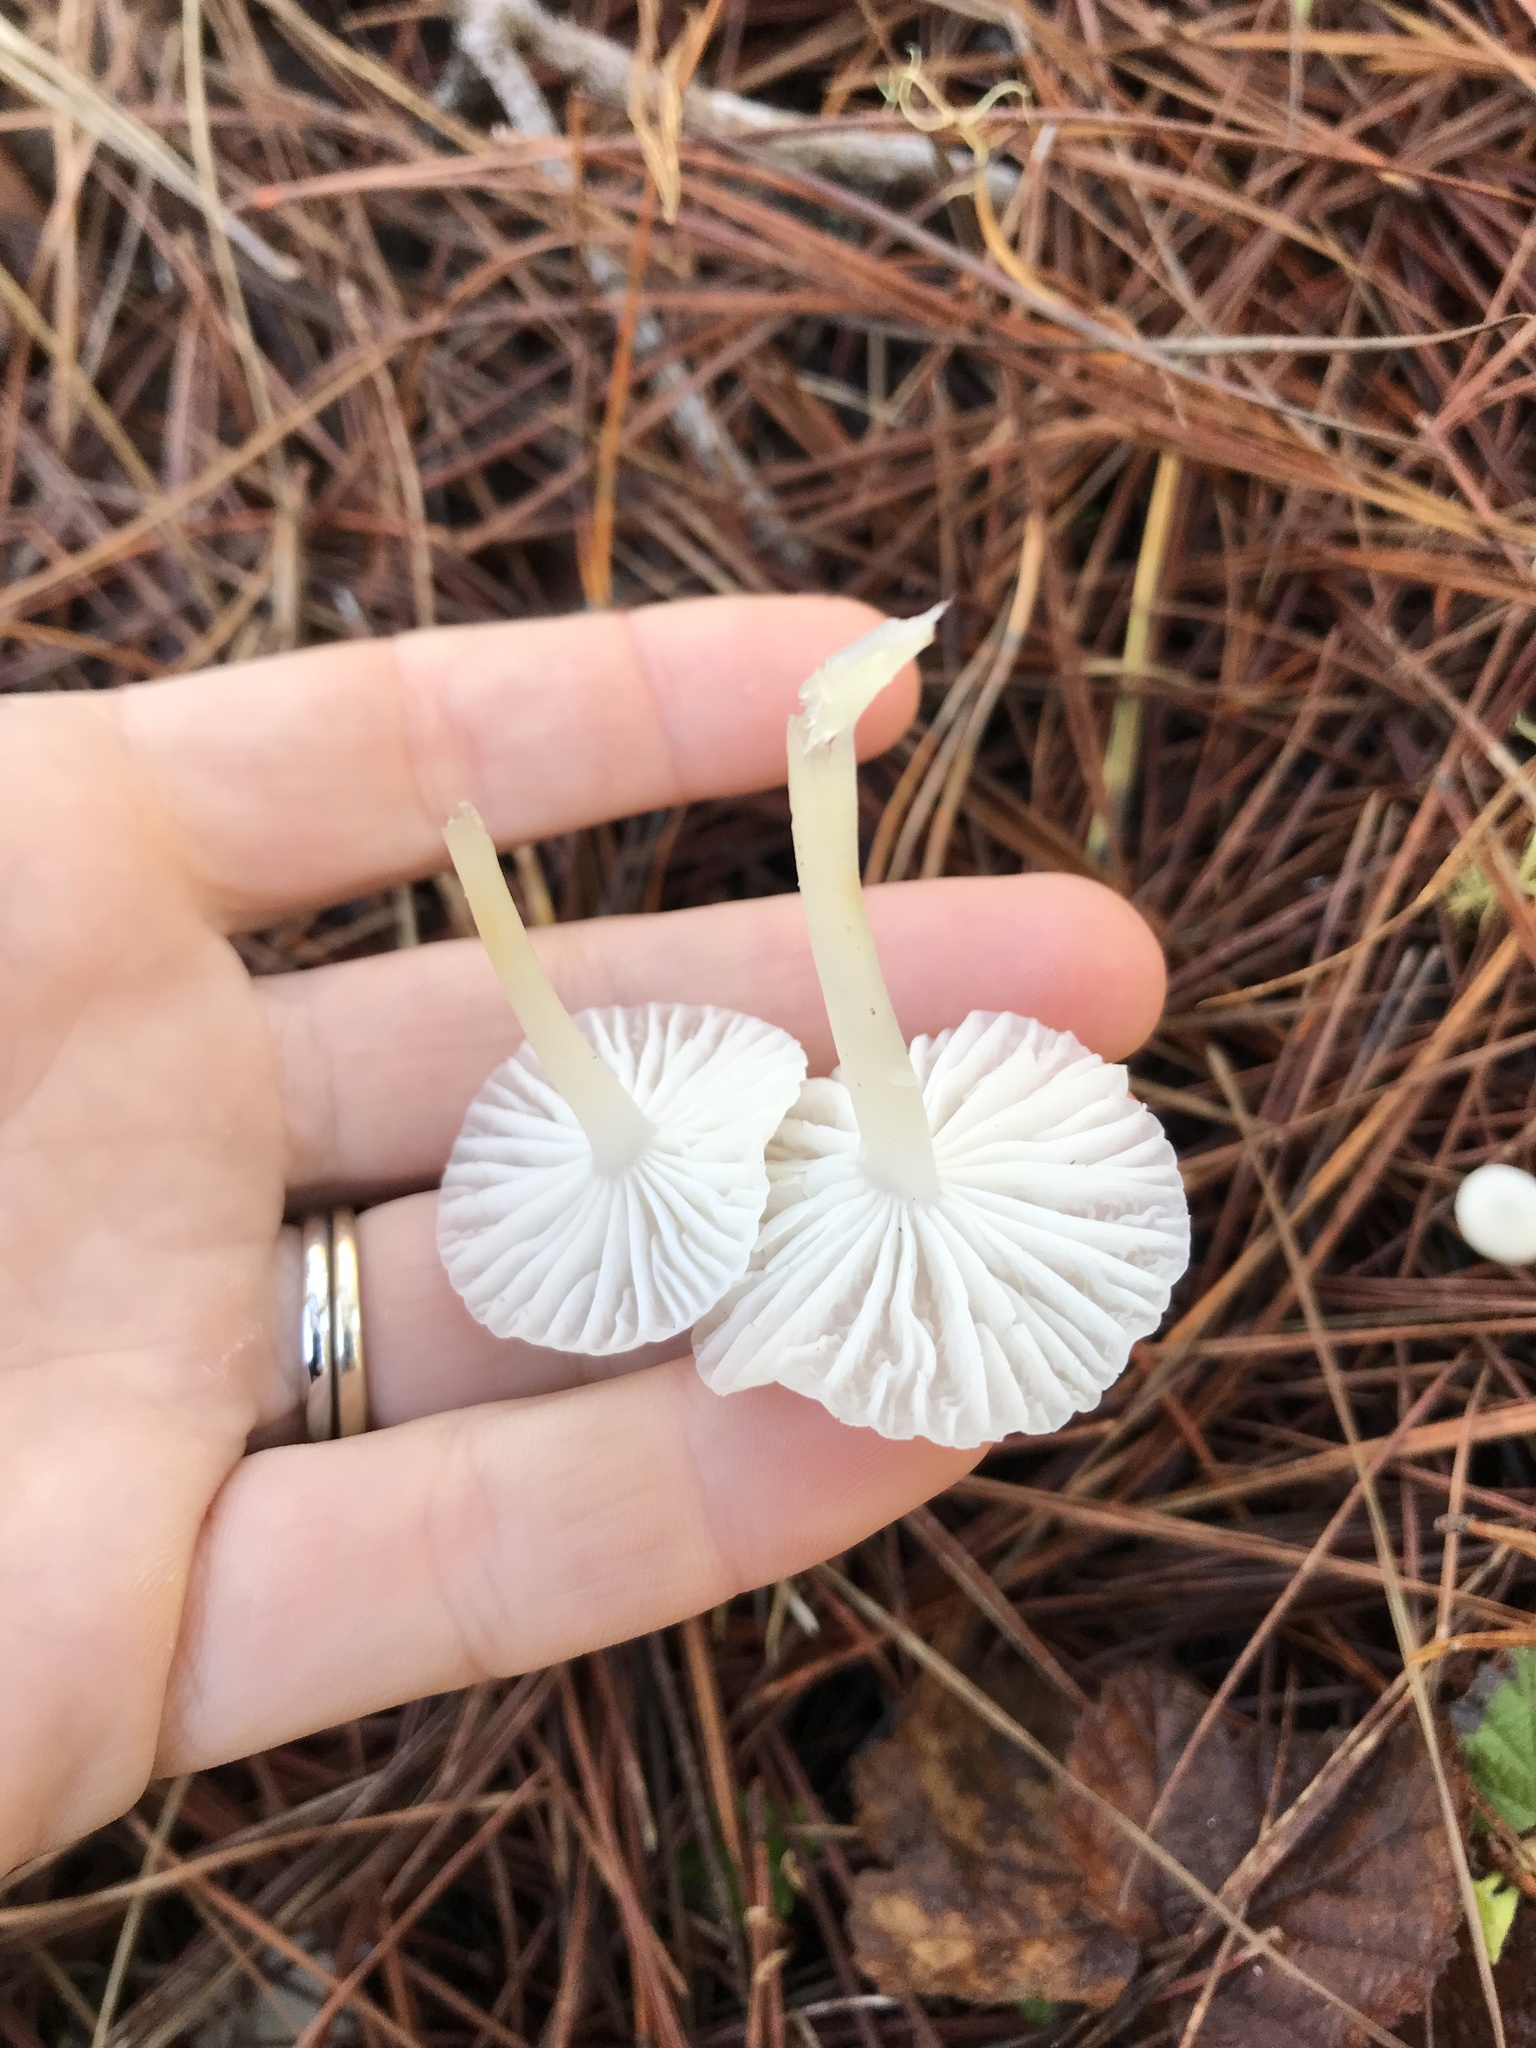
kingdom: Fungi
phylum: Basidiomycota
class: Agaricomycetes
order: Agaricales
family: Marasmiaceae
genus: Marasmius
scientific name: Marasmius calhouniae
